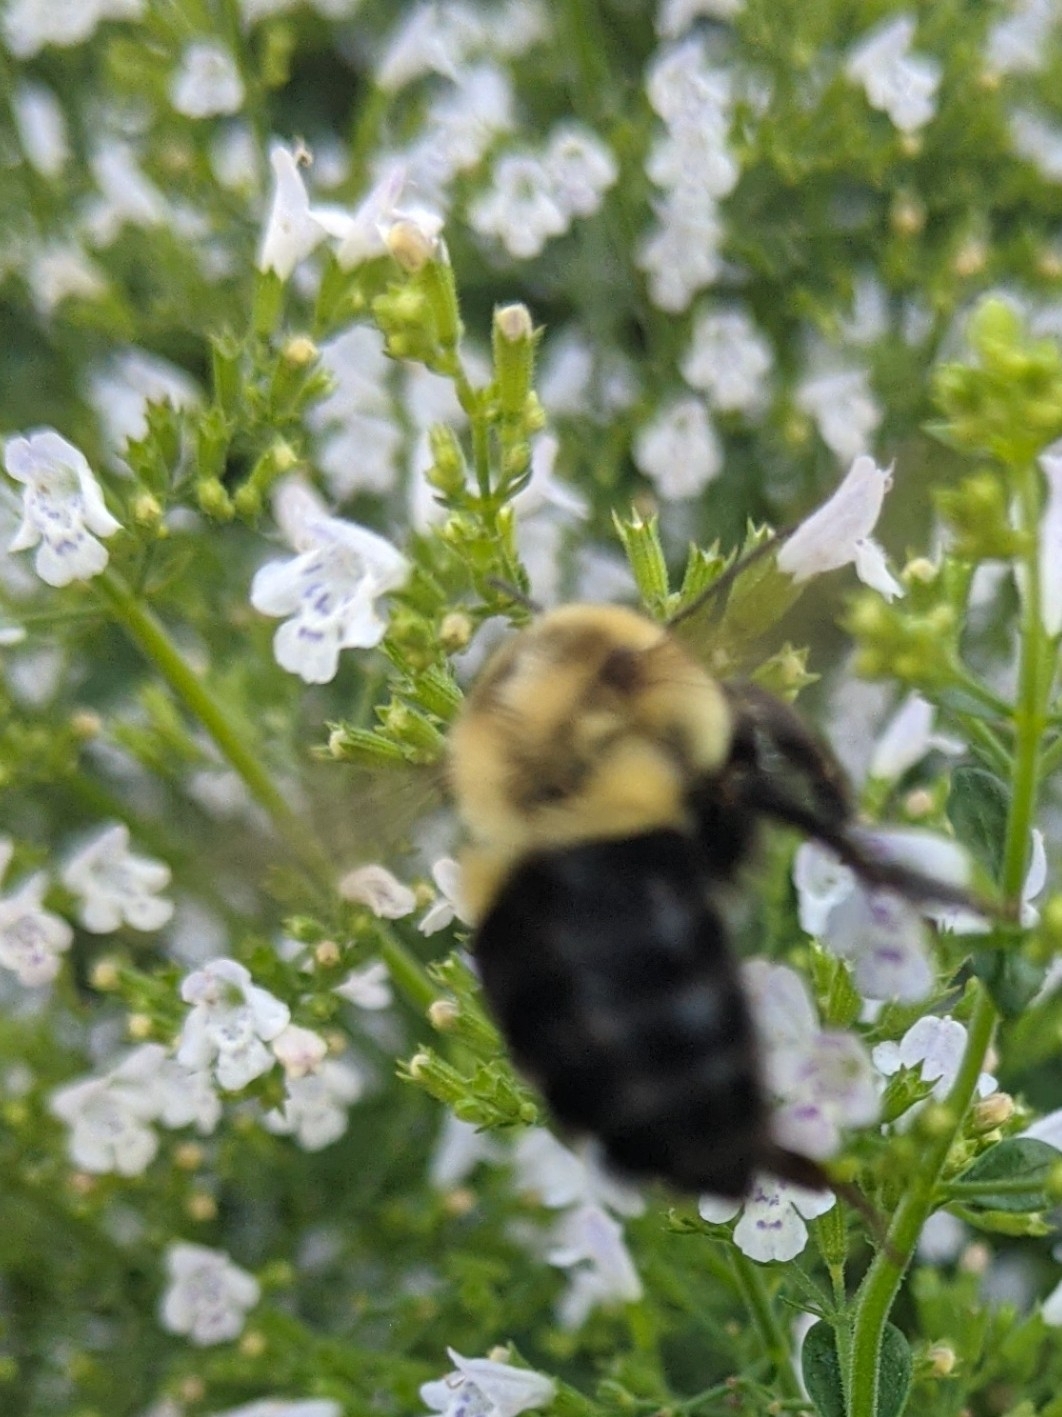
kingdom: Animalia
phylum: Arthropoda
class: Insecta
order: Hymenoptera
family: Apidae
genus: Bombus
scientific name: Bombus impatiens
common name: Common eastern bumble bee
